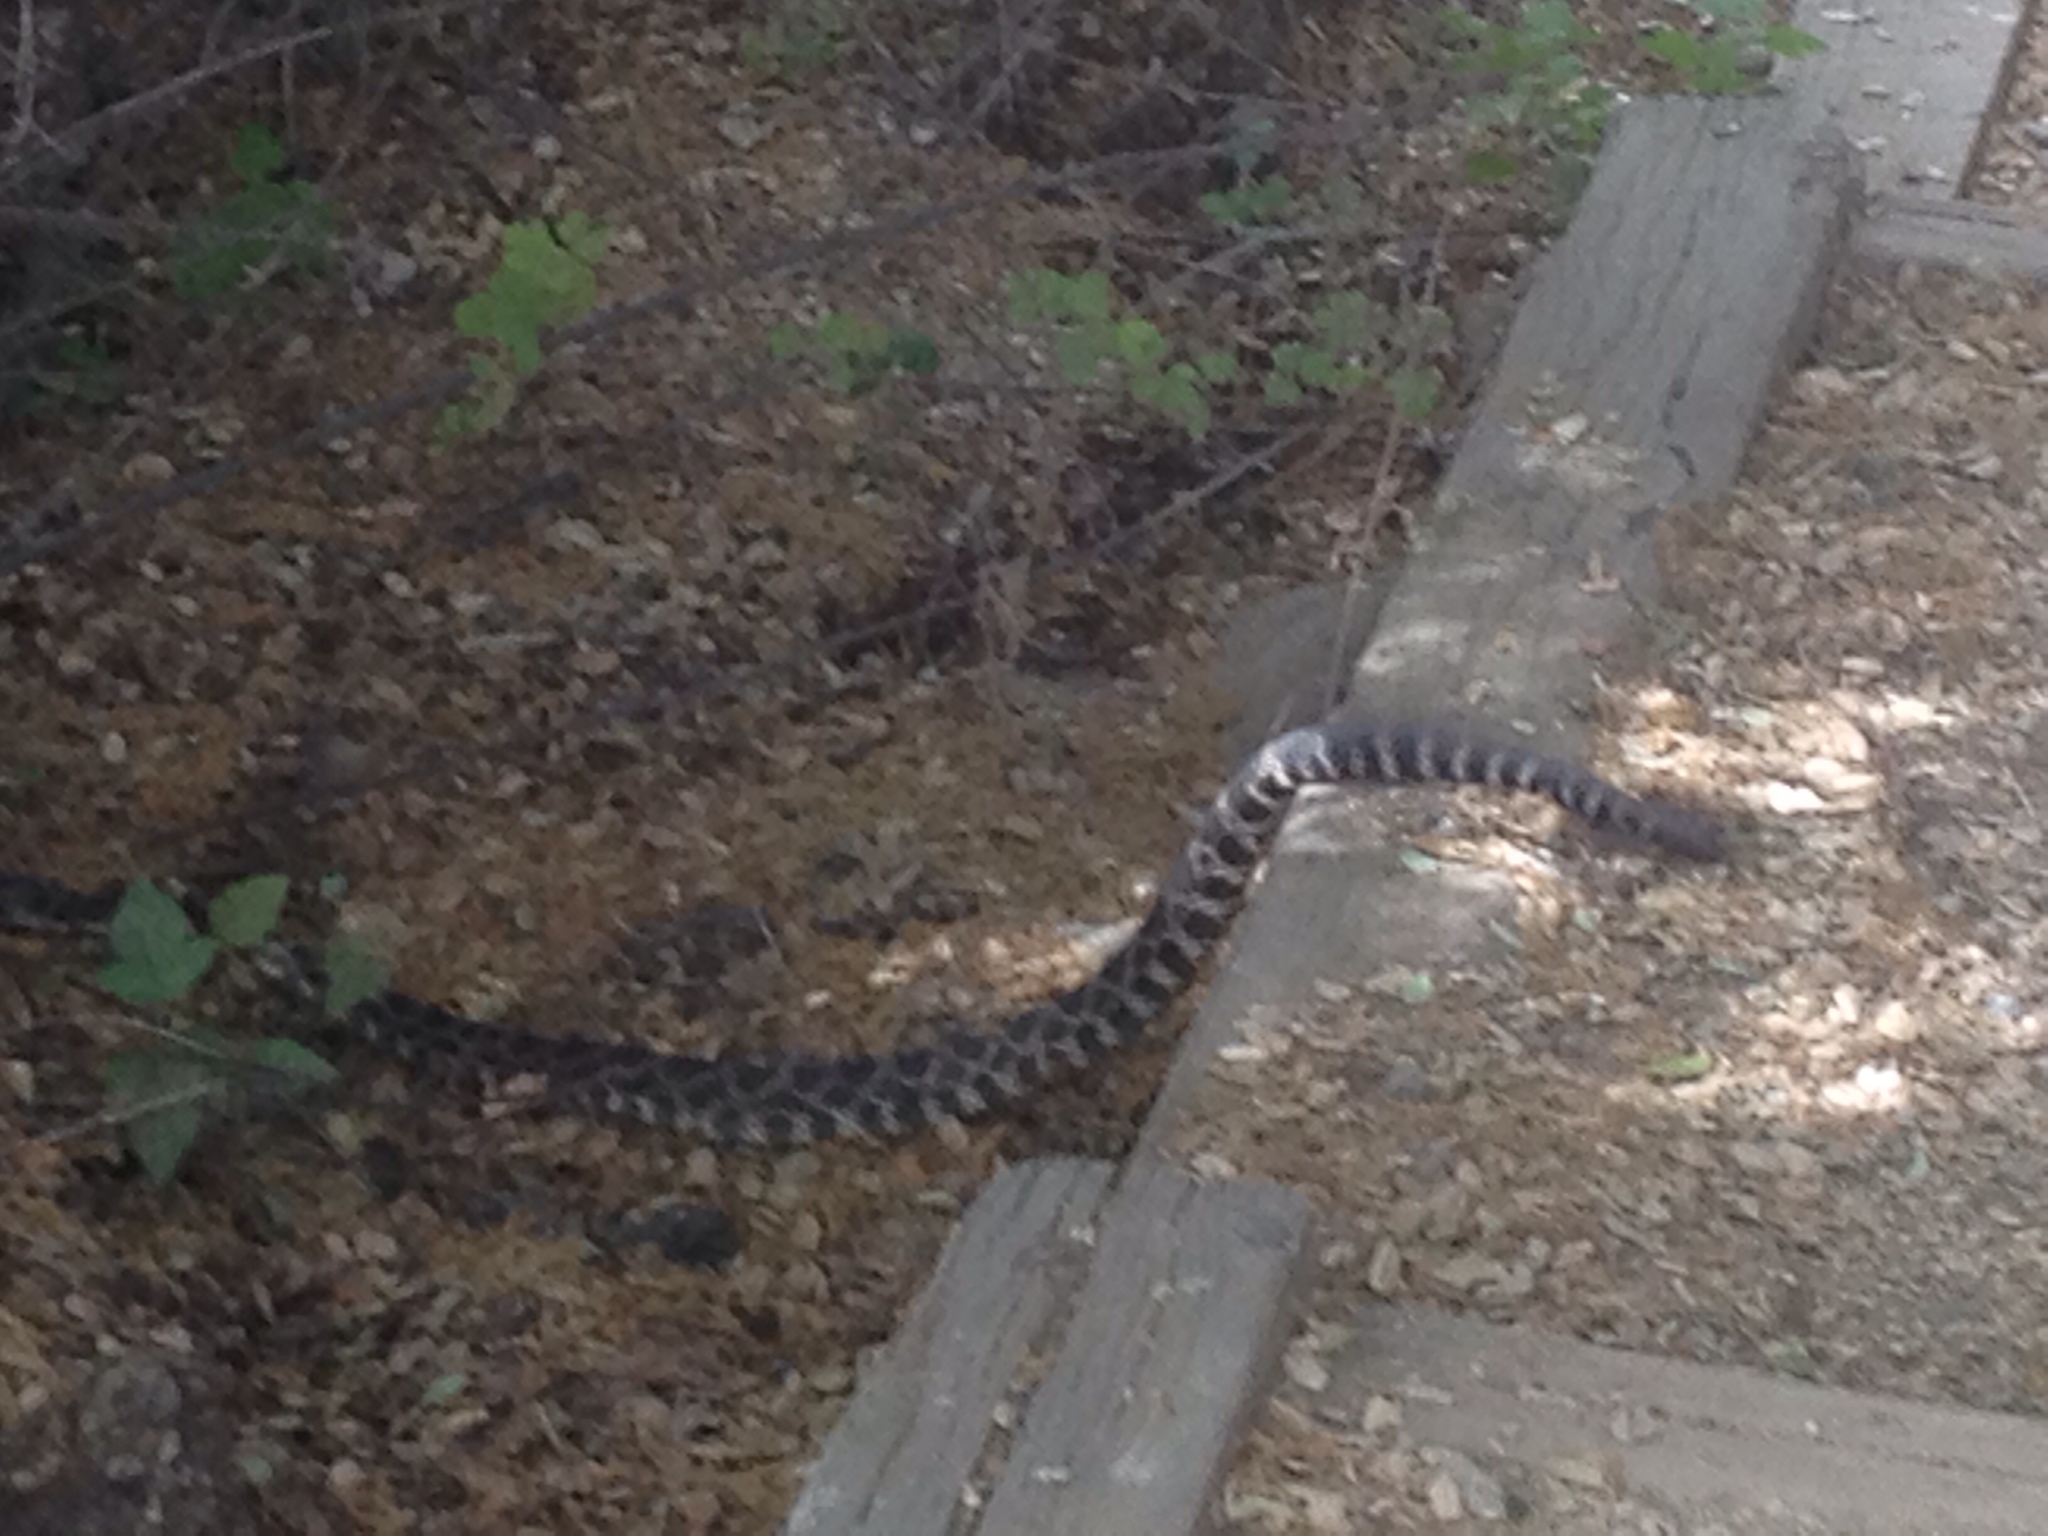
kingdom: Animalia
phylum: Chordata
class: Squamata
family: Viperidae
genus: Crotalus
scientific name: Crotalus oreganus
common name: Abyssus
